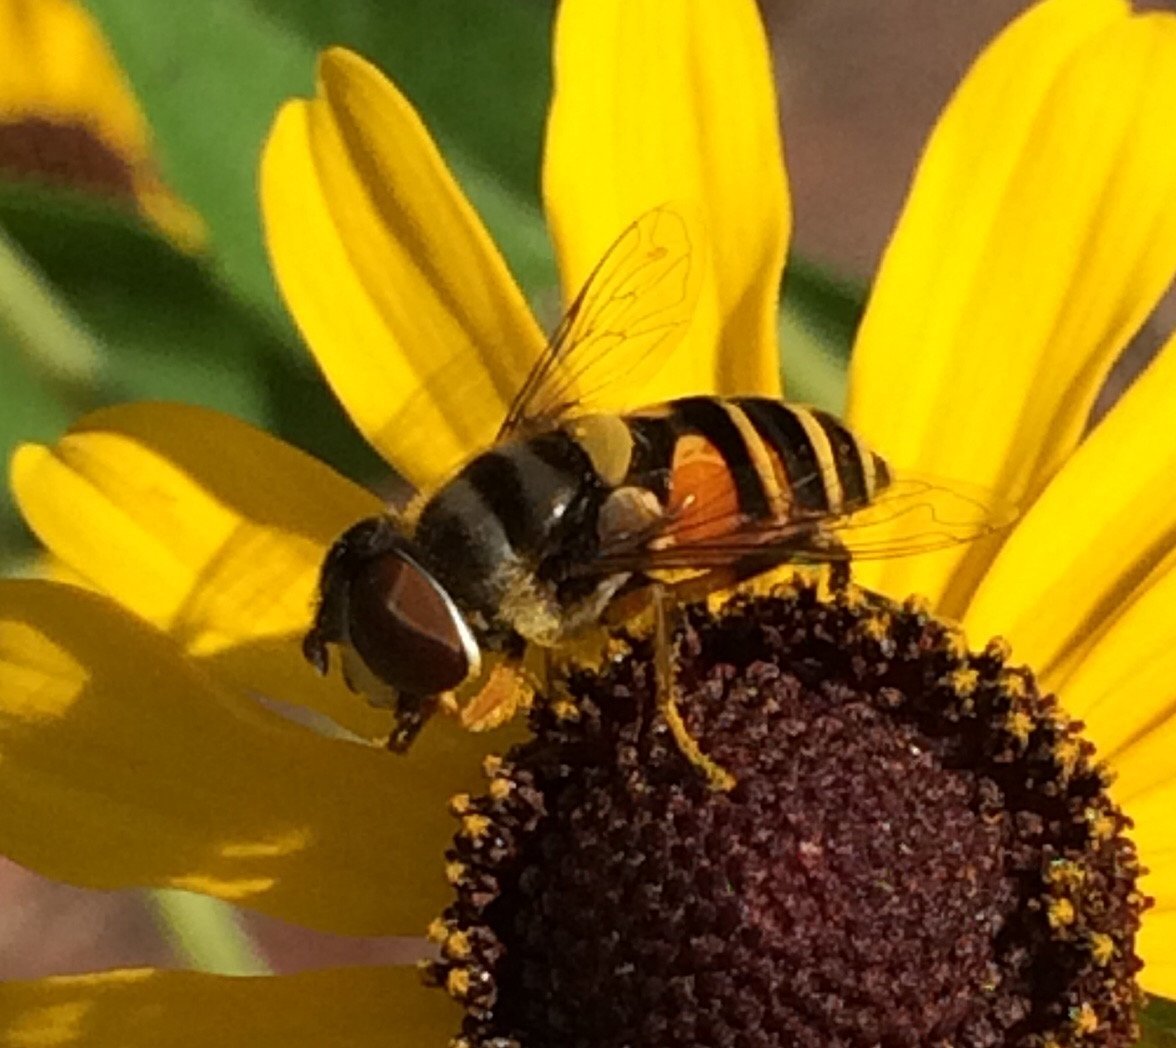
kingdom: Animalia
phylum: Arthropoda
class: Insecta
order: Diptera
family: Syrphidae
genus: Eristalis
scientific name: Eristalis transversa
